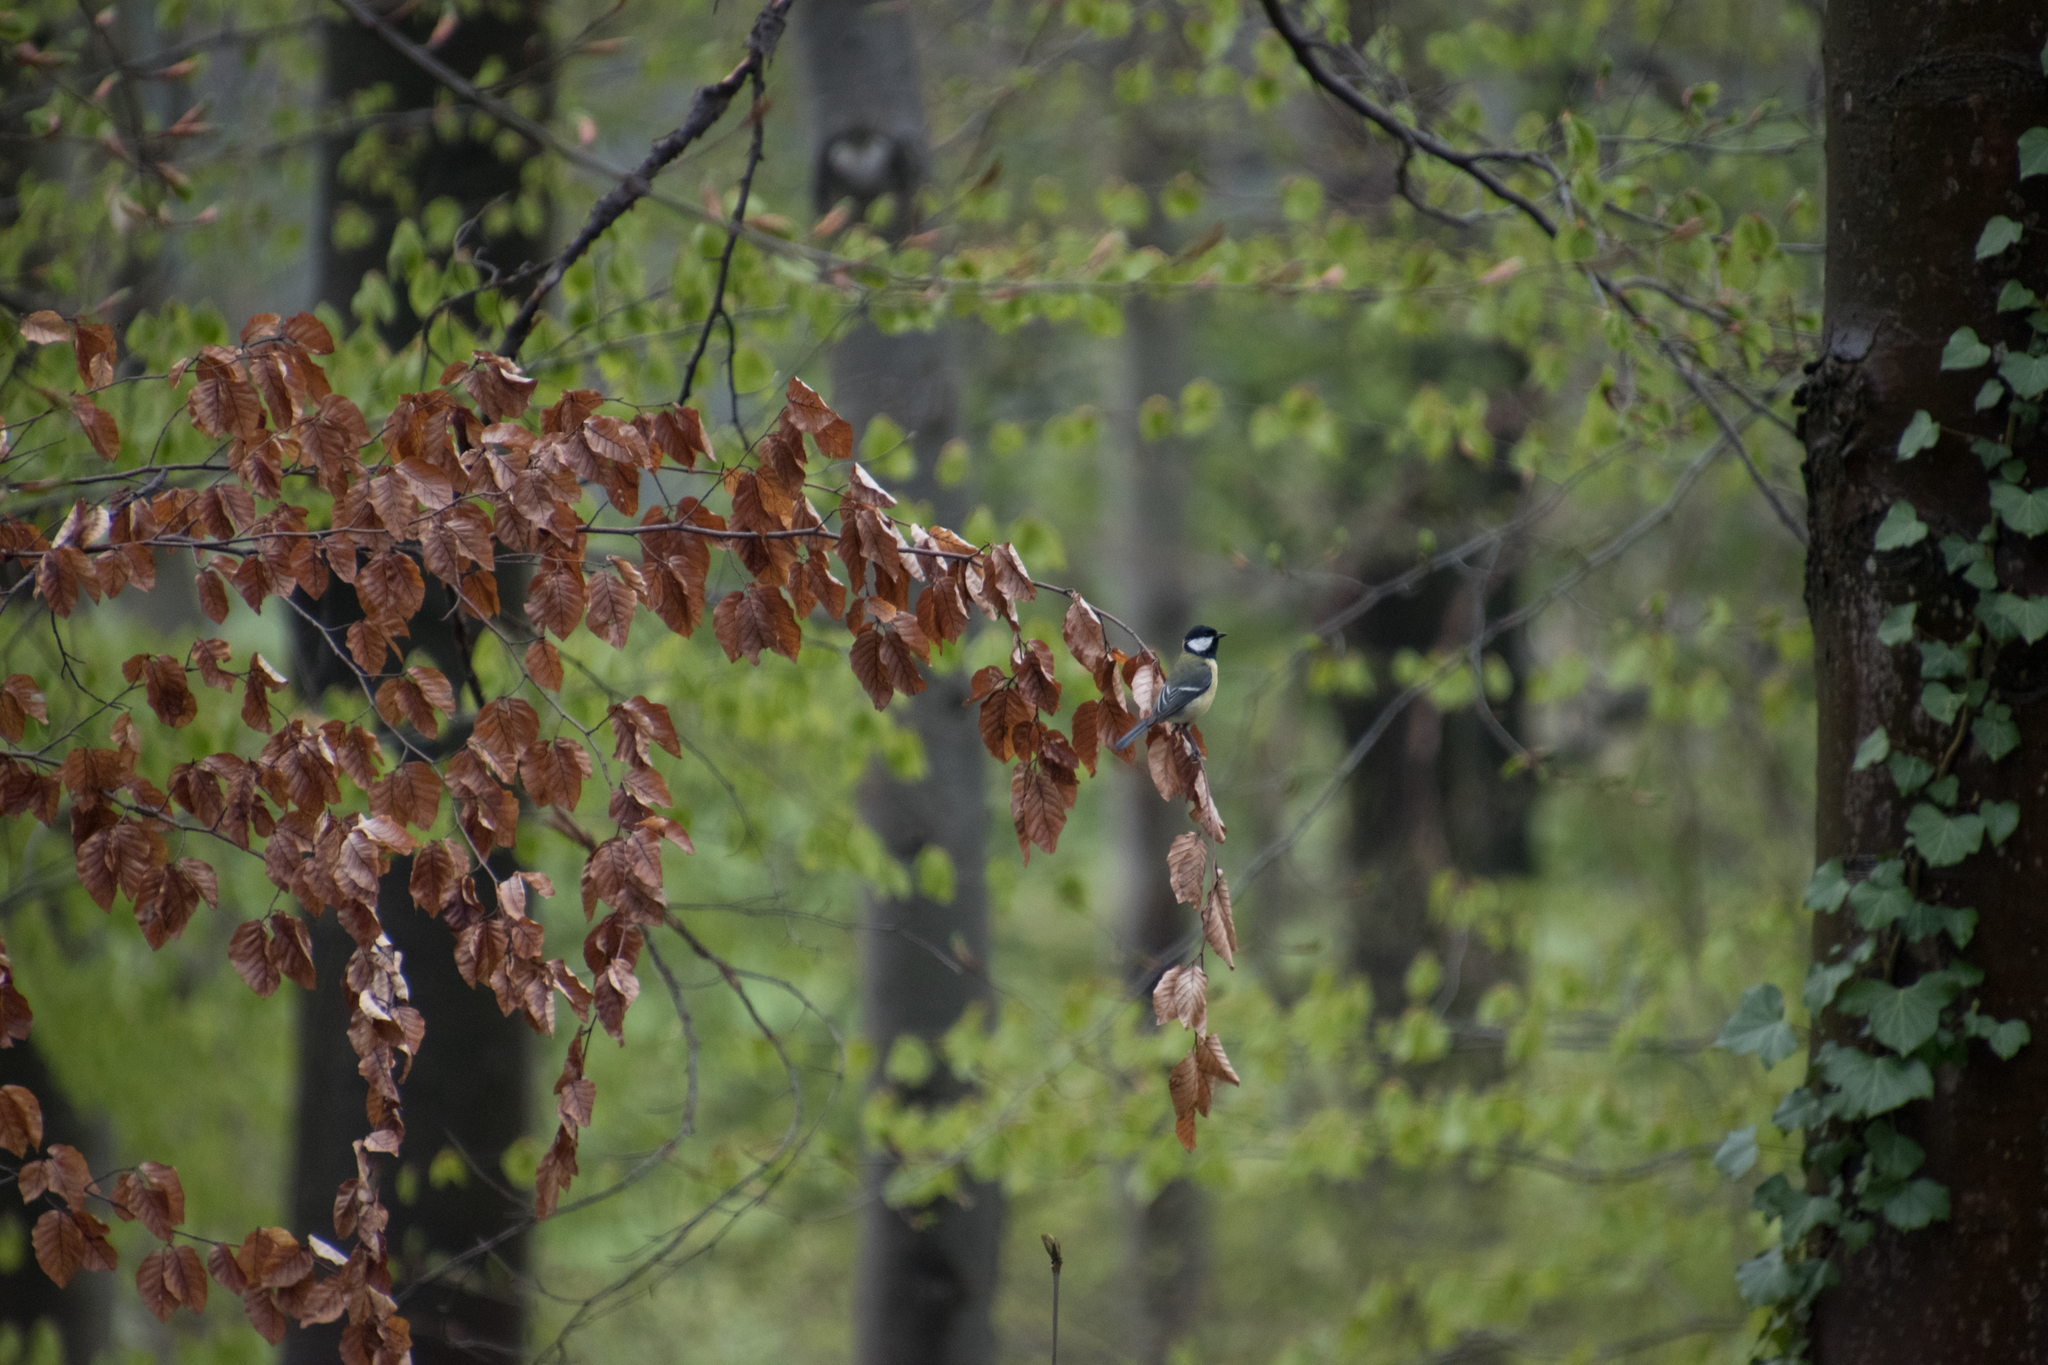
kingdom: Animalia
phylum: Chordata
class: Aves
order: Passeriformes
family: Paridae
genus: Parus
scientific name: Parus major
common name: Great tit
